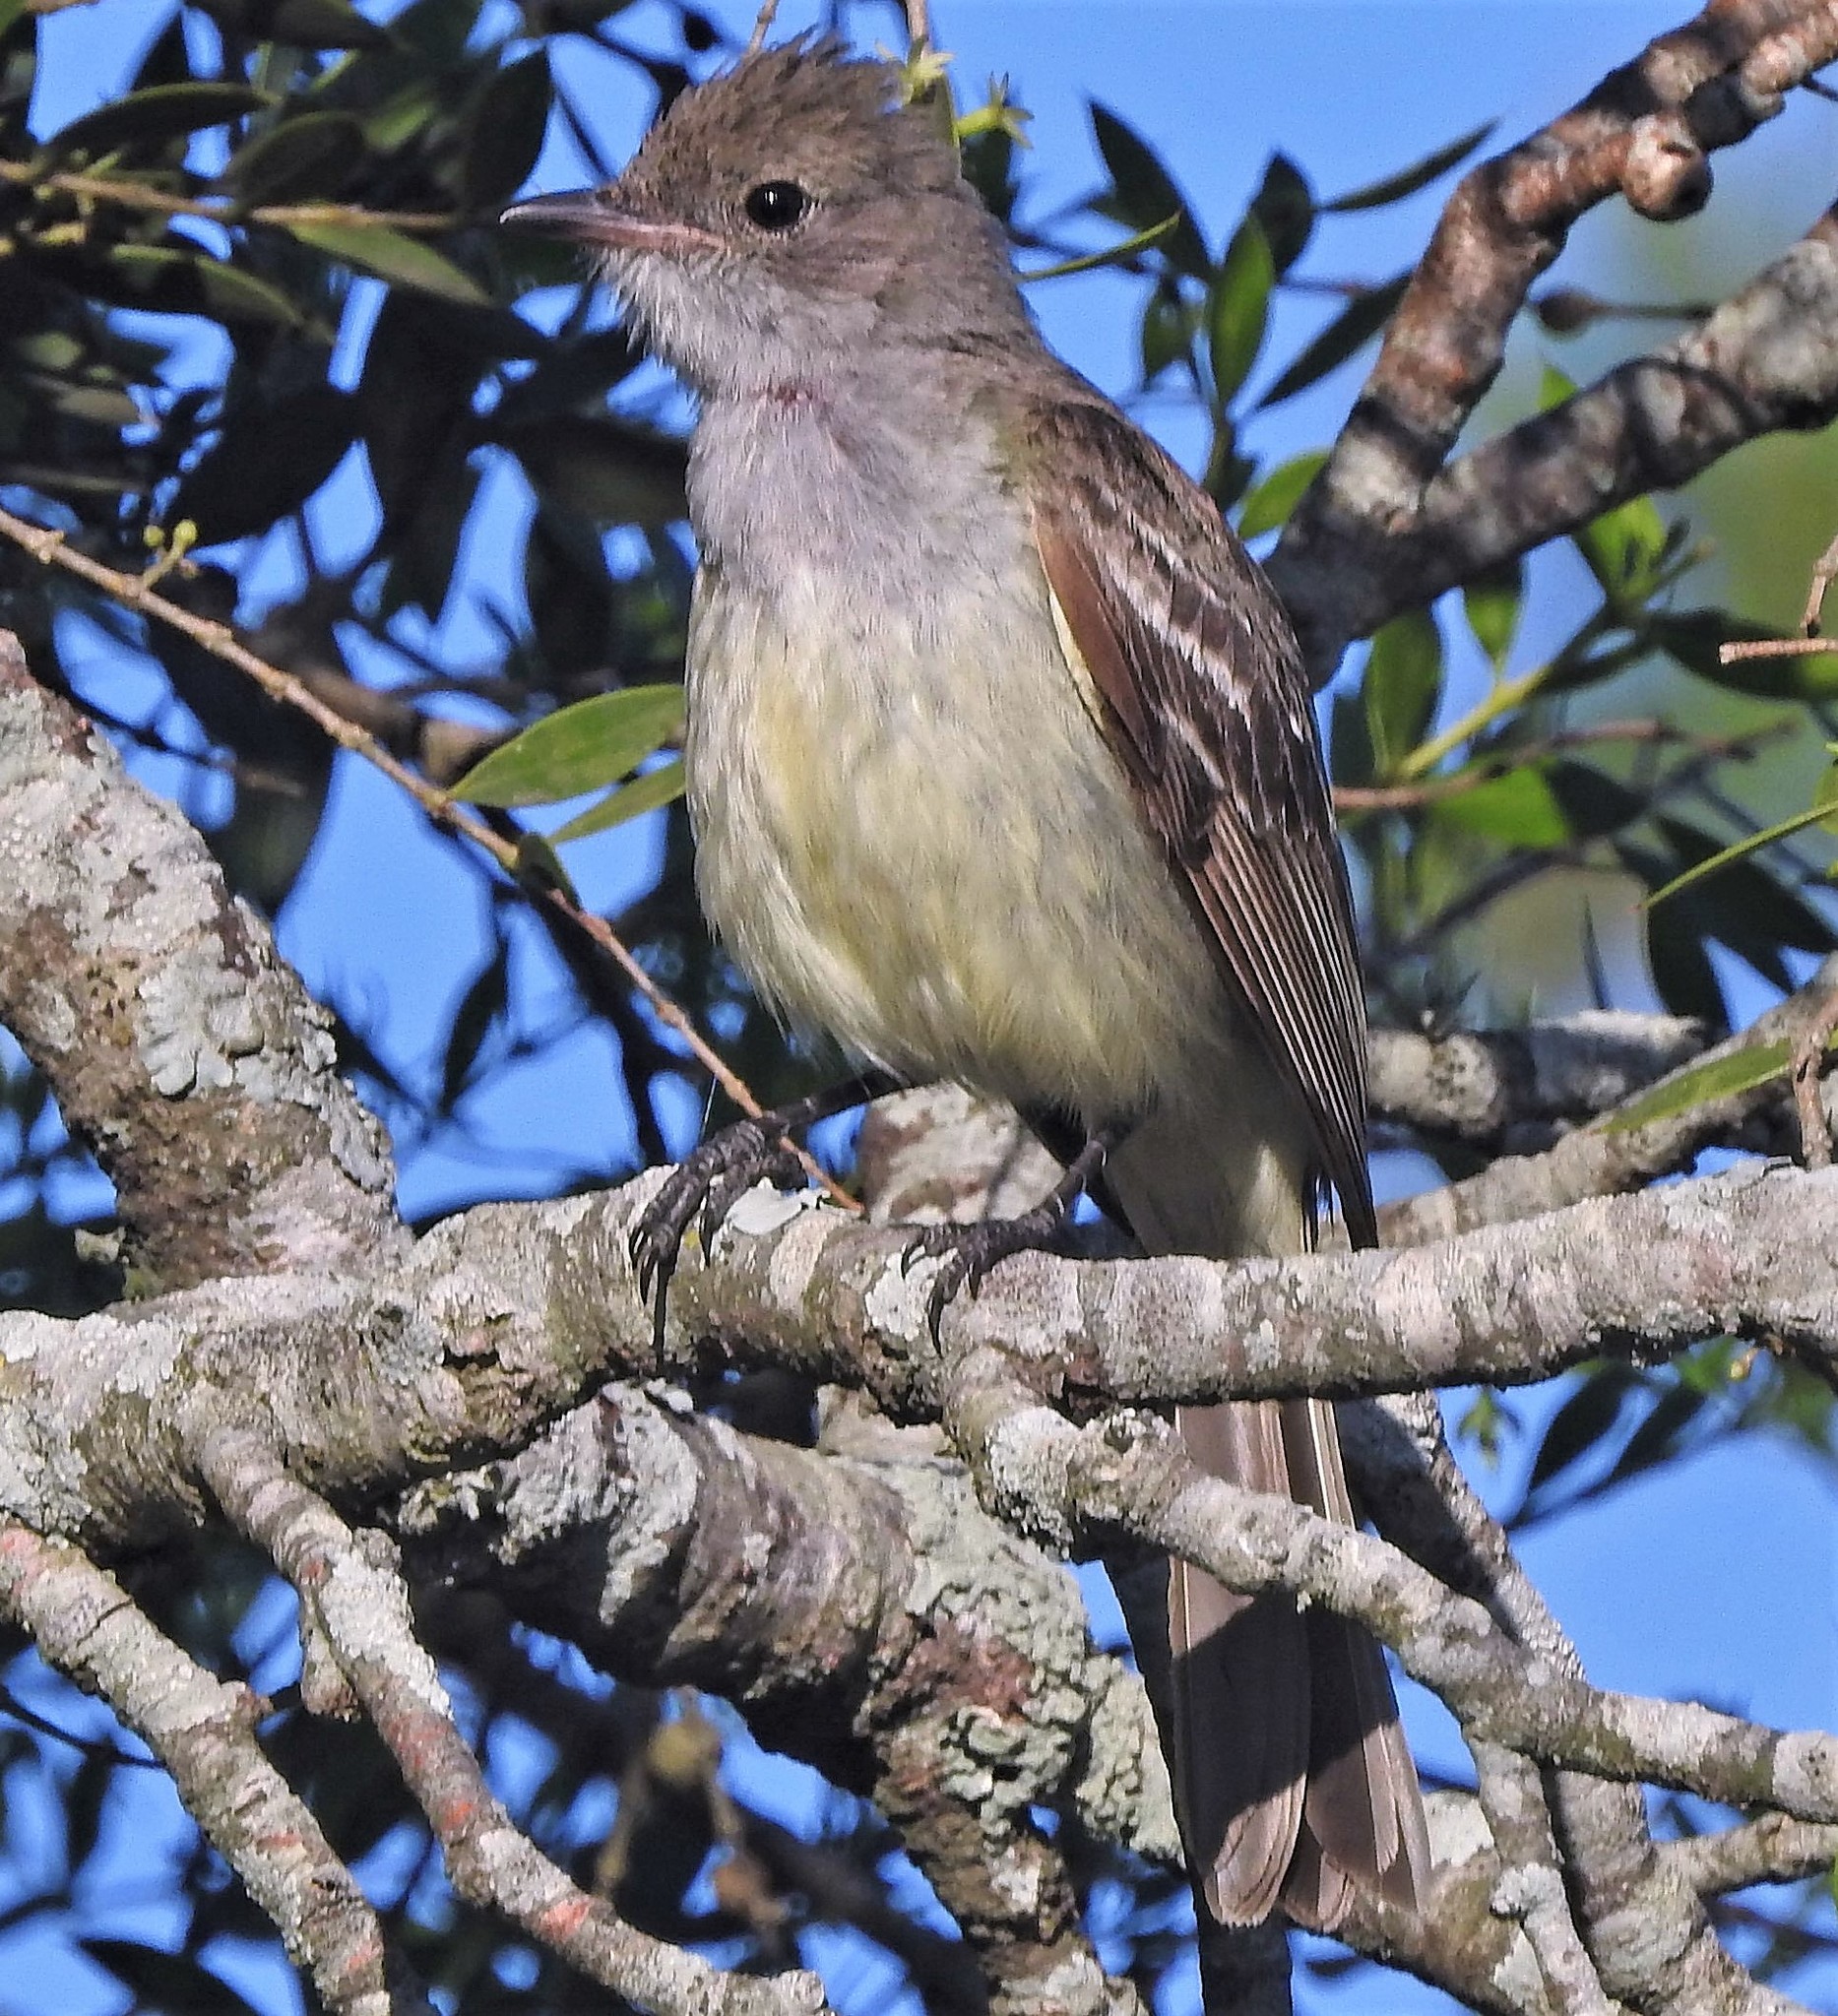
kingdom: Animalia
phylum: Chordata
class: Aves
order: Passeriformes
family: Tyrannidae
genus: Elaenia
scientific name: Elaenia spectabilis
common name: Large elaenia
